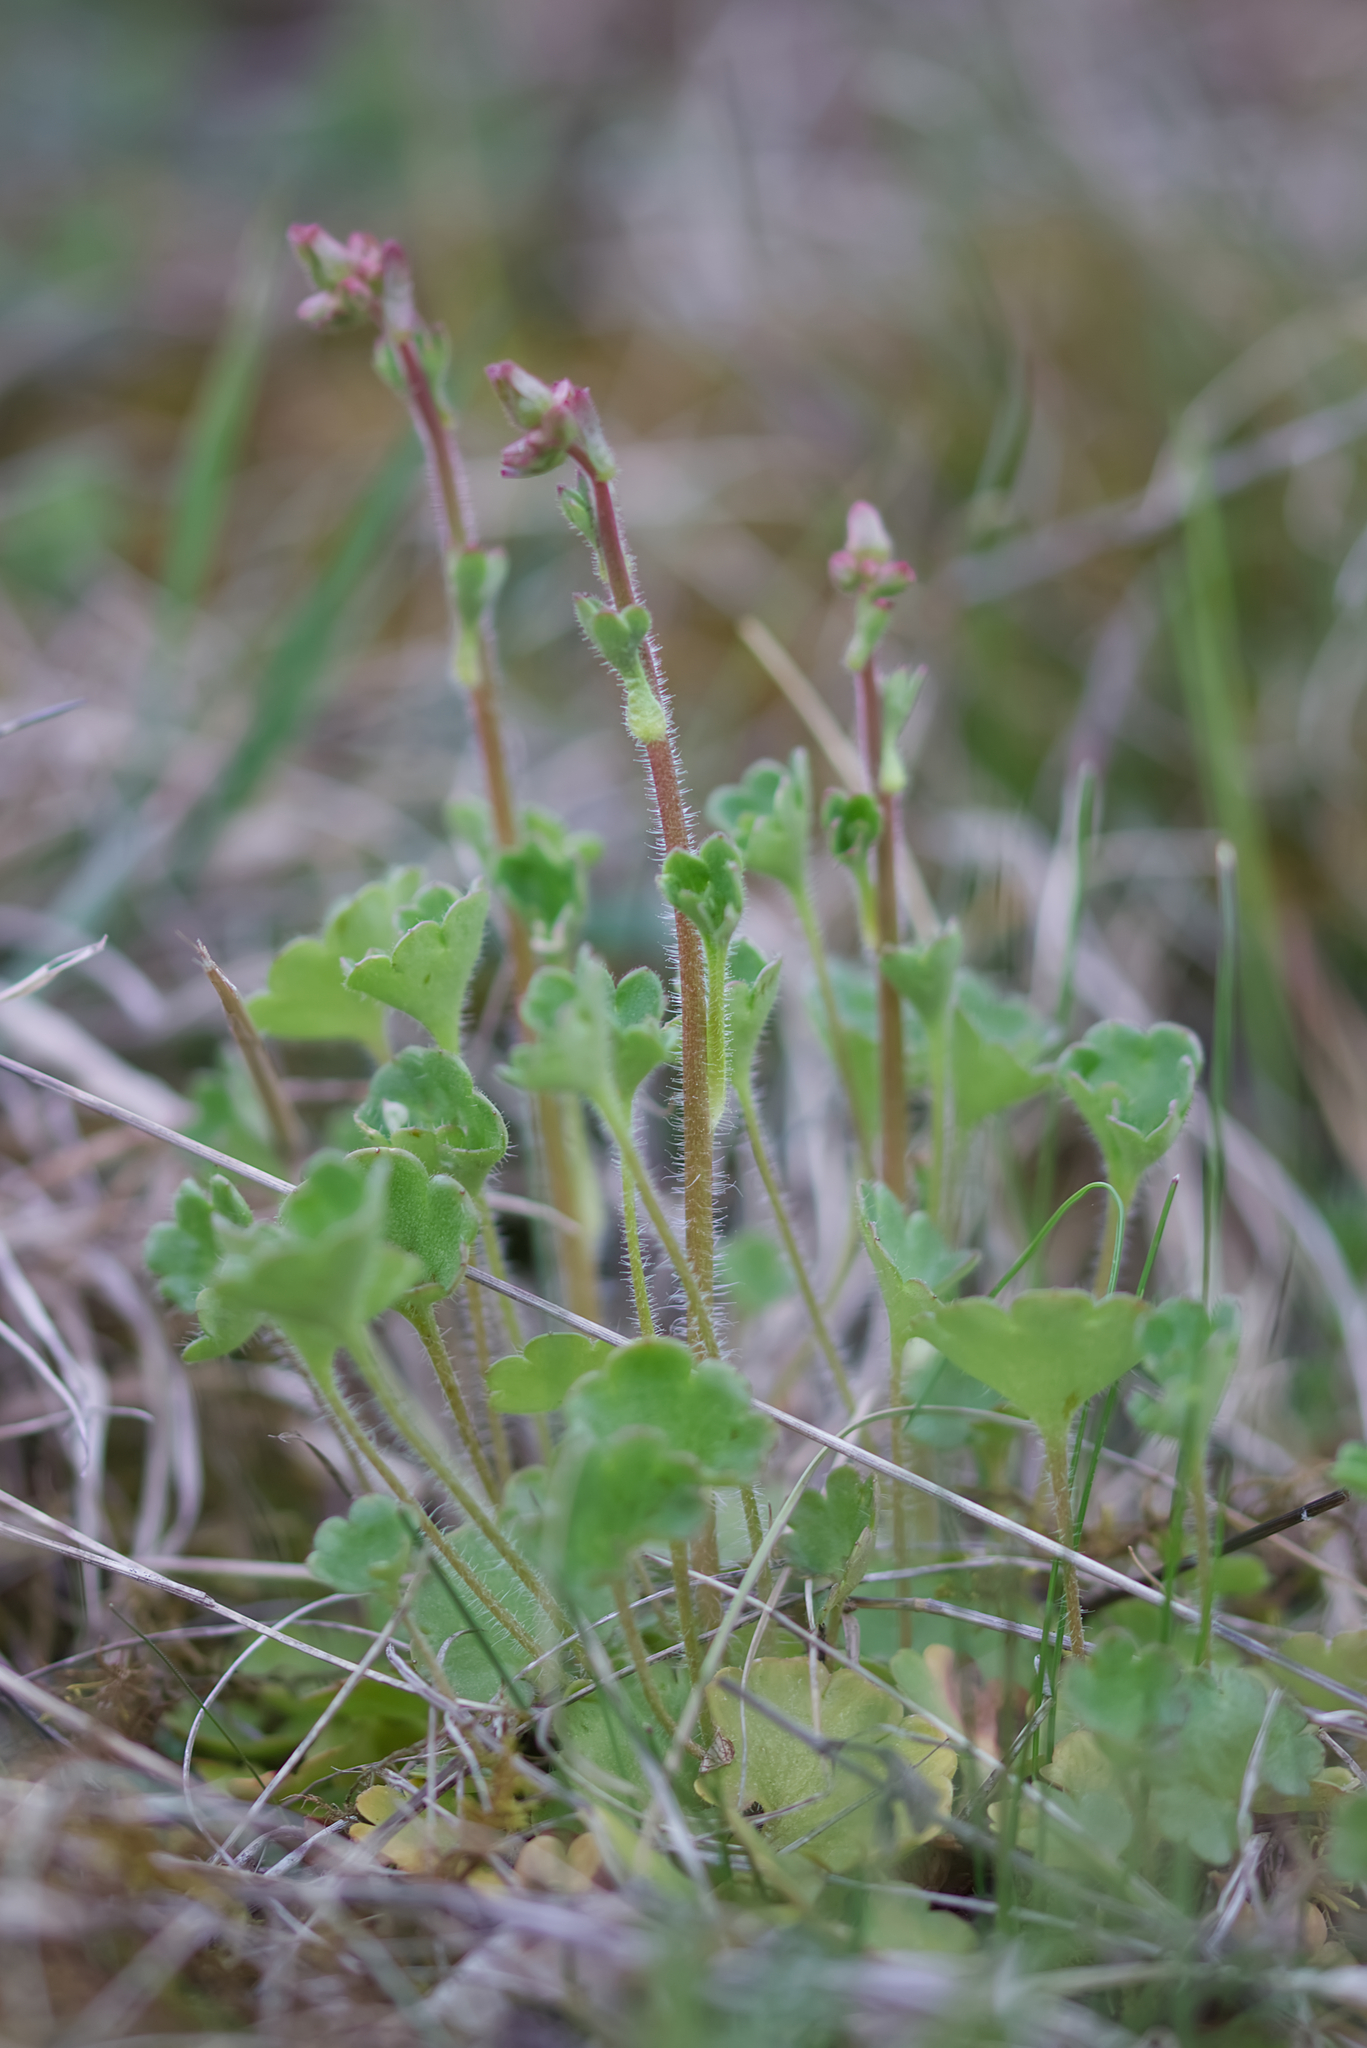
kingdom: Plantae
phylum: Tracheophyta
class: Magnoliopsida
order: Saxifragales
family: Saxifragaceae
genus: Saxifraga
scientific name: Saxifraga granulata
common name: Meadow saxifrage
